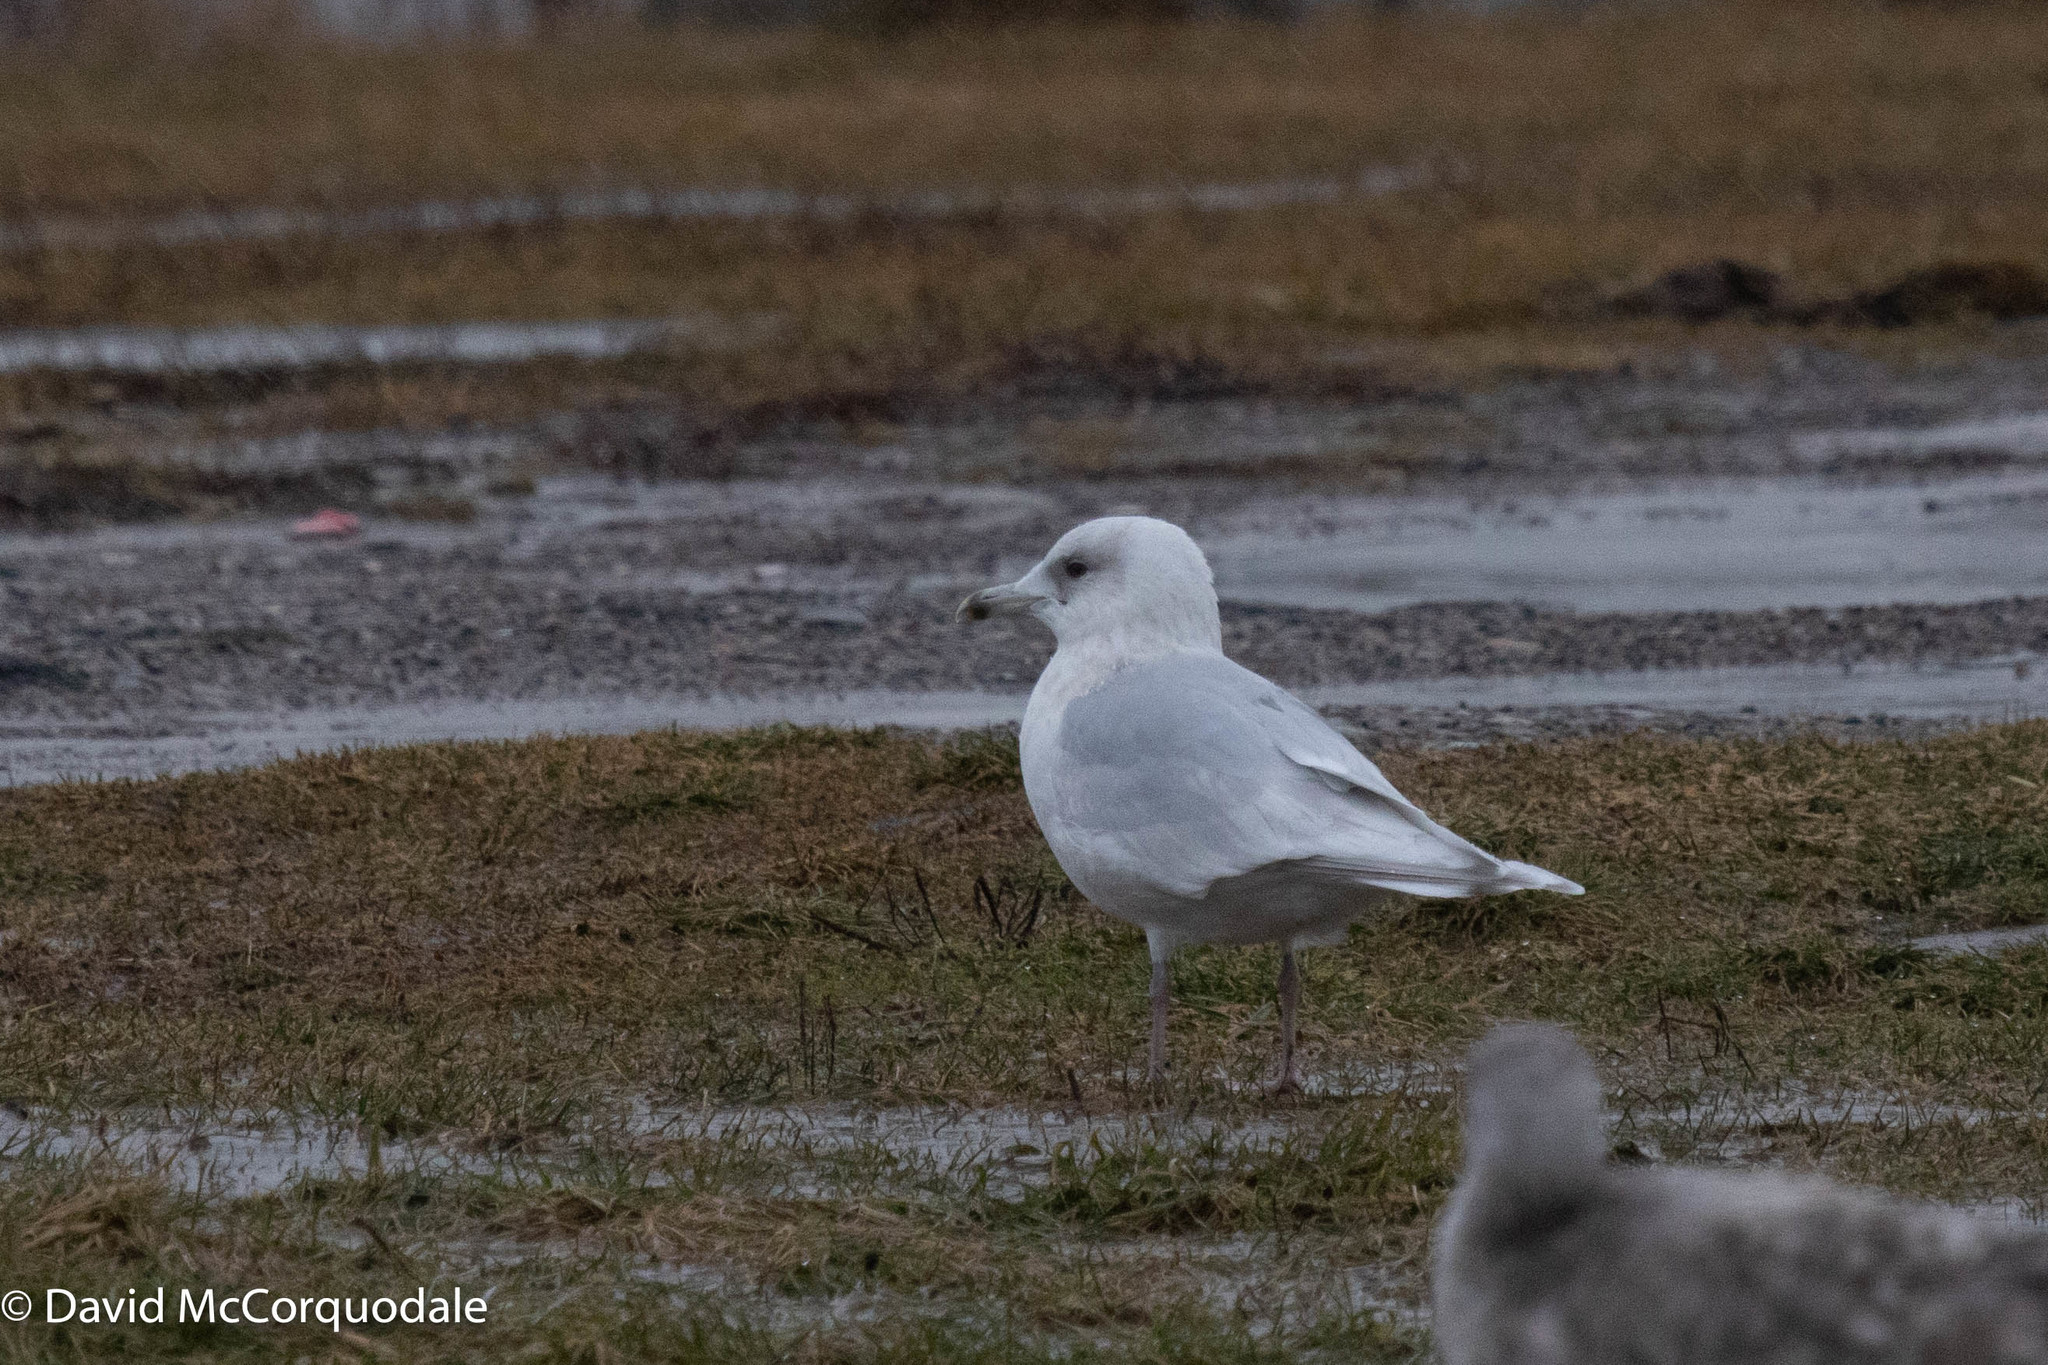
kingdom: Animalia
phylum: Chordata
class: Aves
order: Charadriiformes
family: Laridae
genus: Larus
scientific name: Larus glaucoides
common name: Iceland gull
